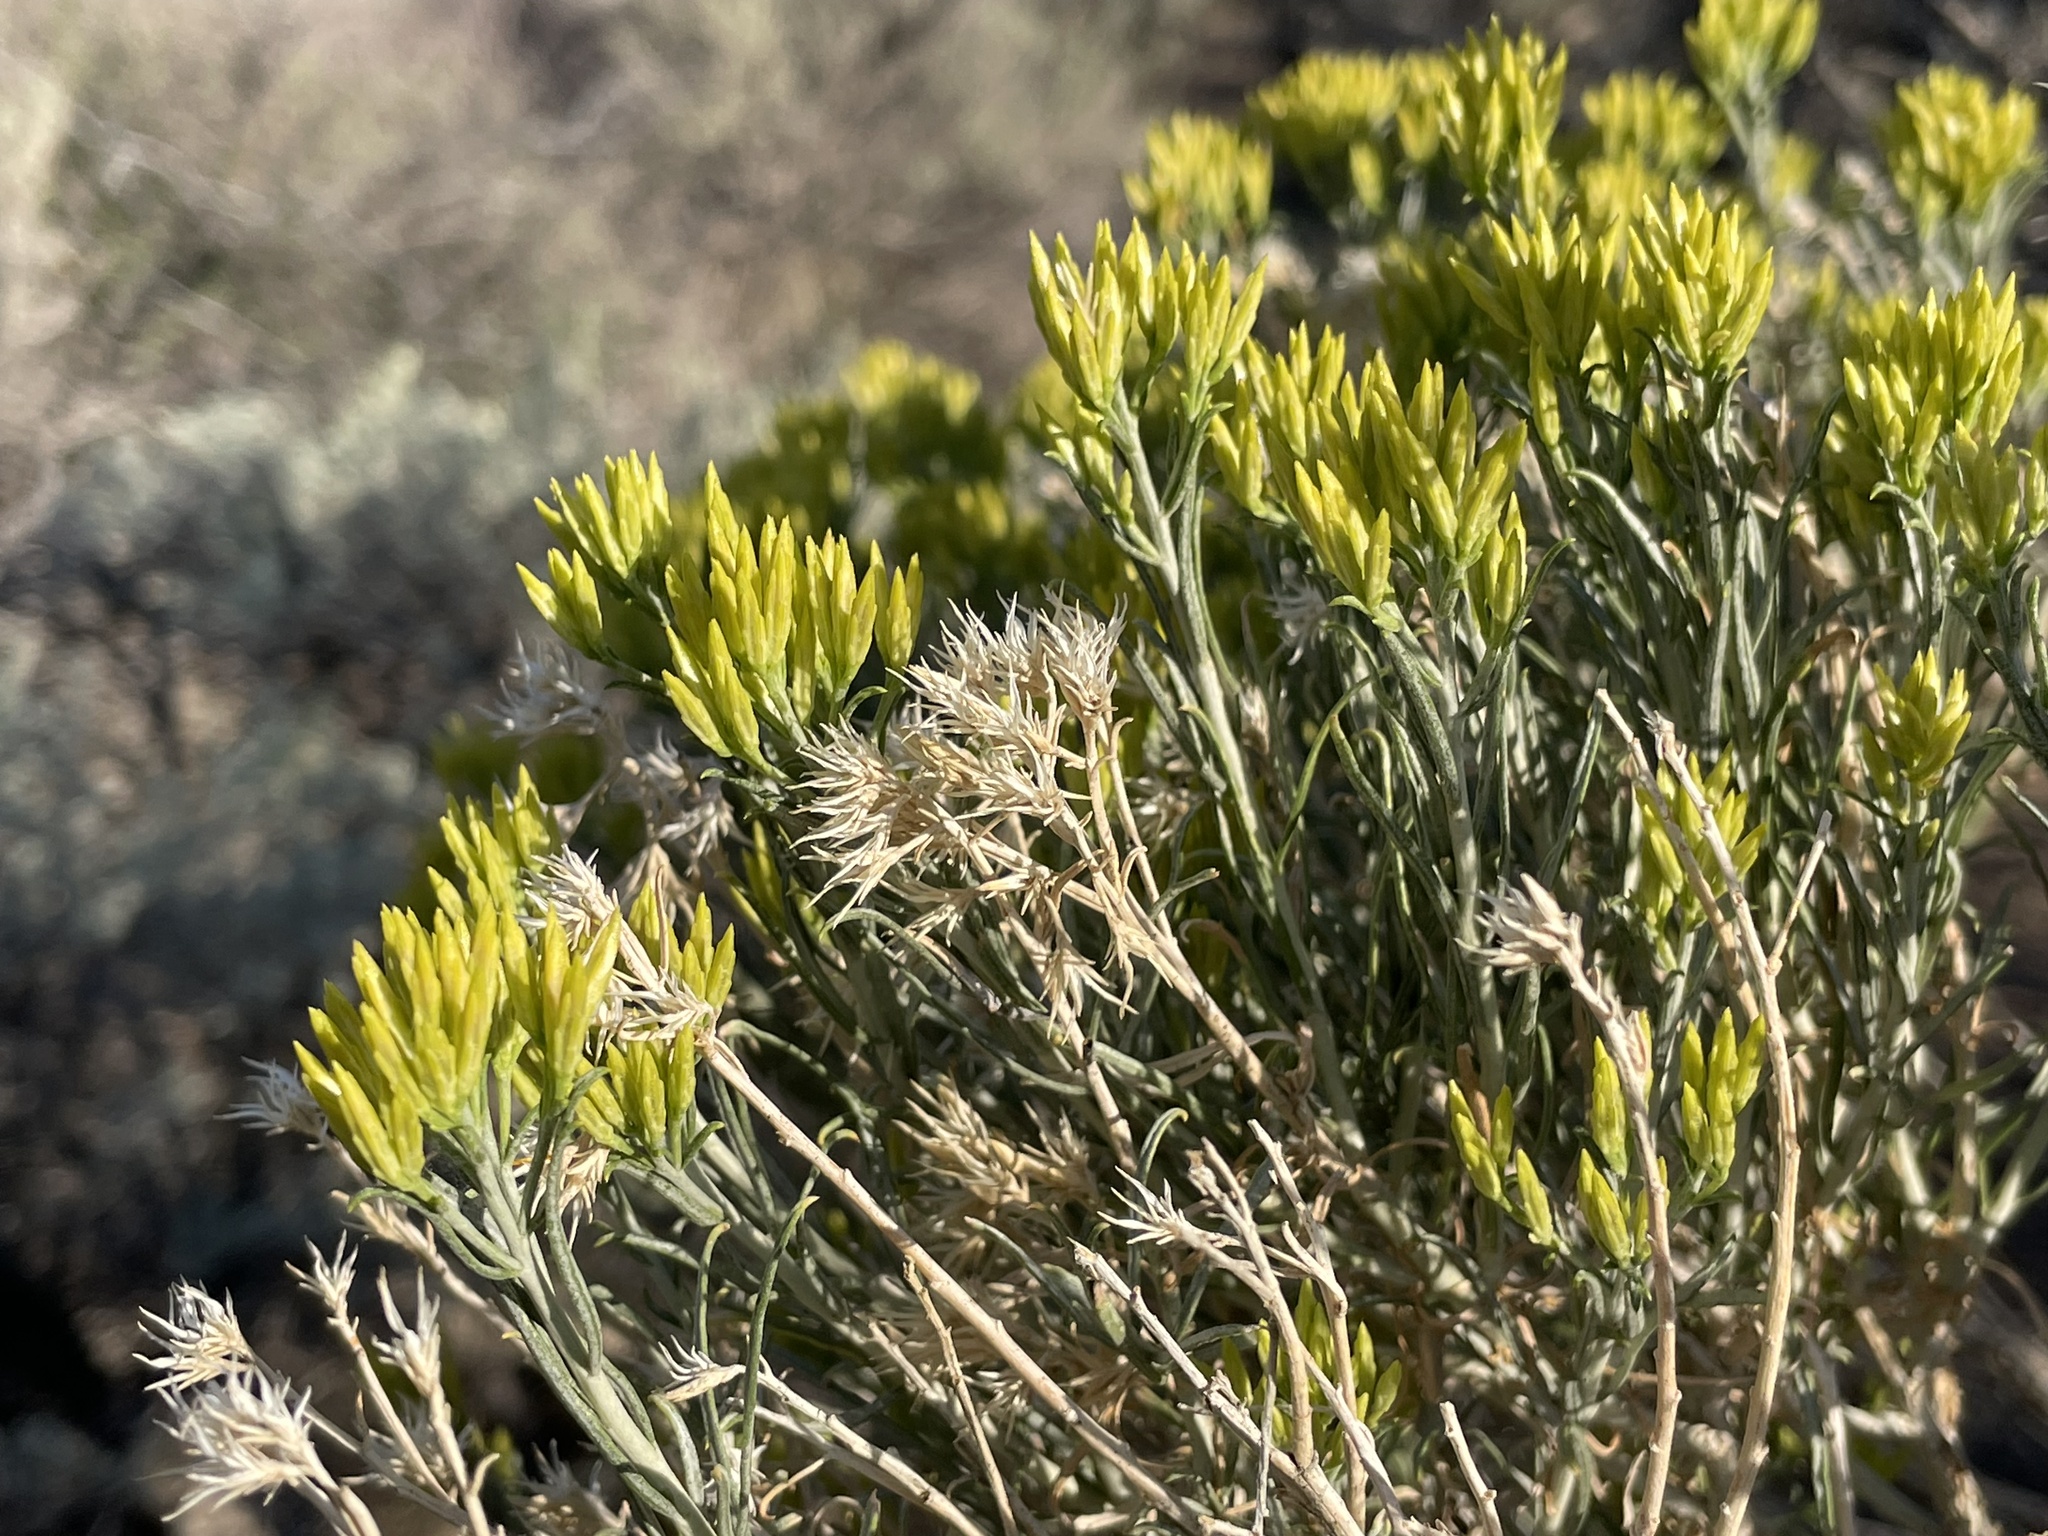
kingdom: Plantae
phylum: Tracheophyta
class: Magnoliopsida
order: Asterales
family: Asteraceae
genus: Ericameria
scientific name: Ericameria nauseosa
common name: Rubber rabbitbrush
